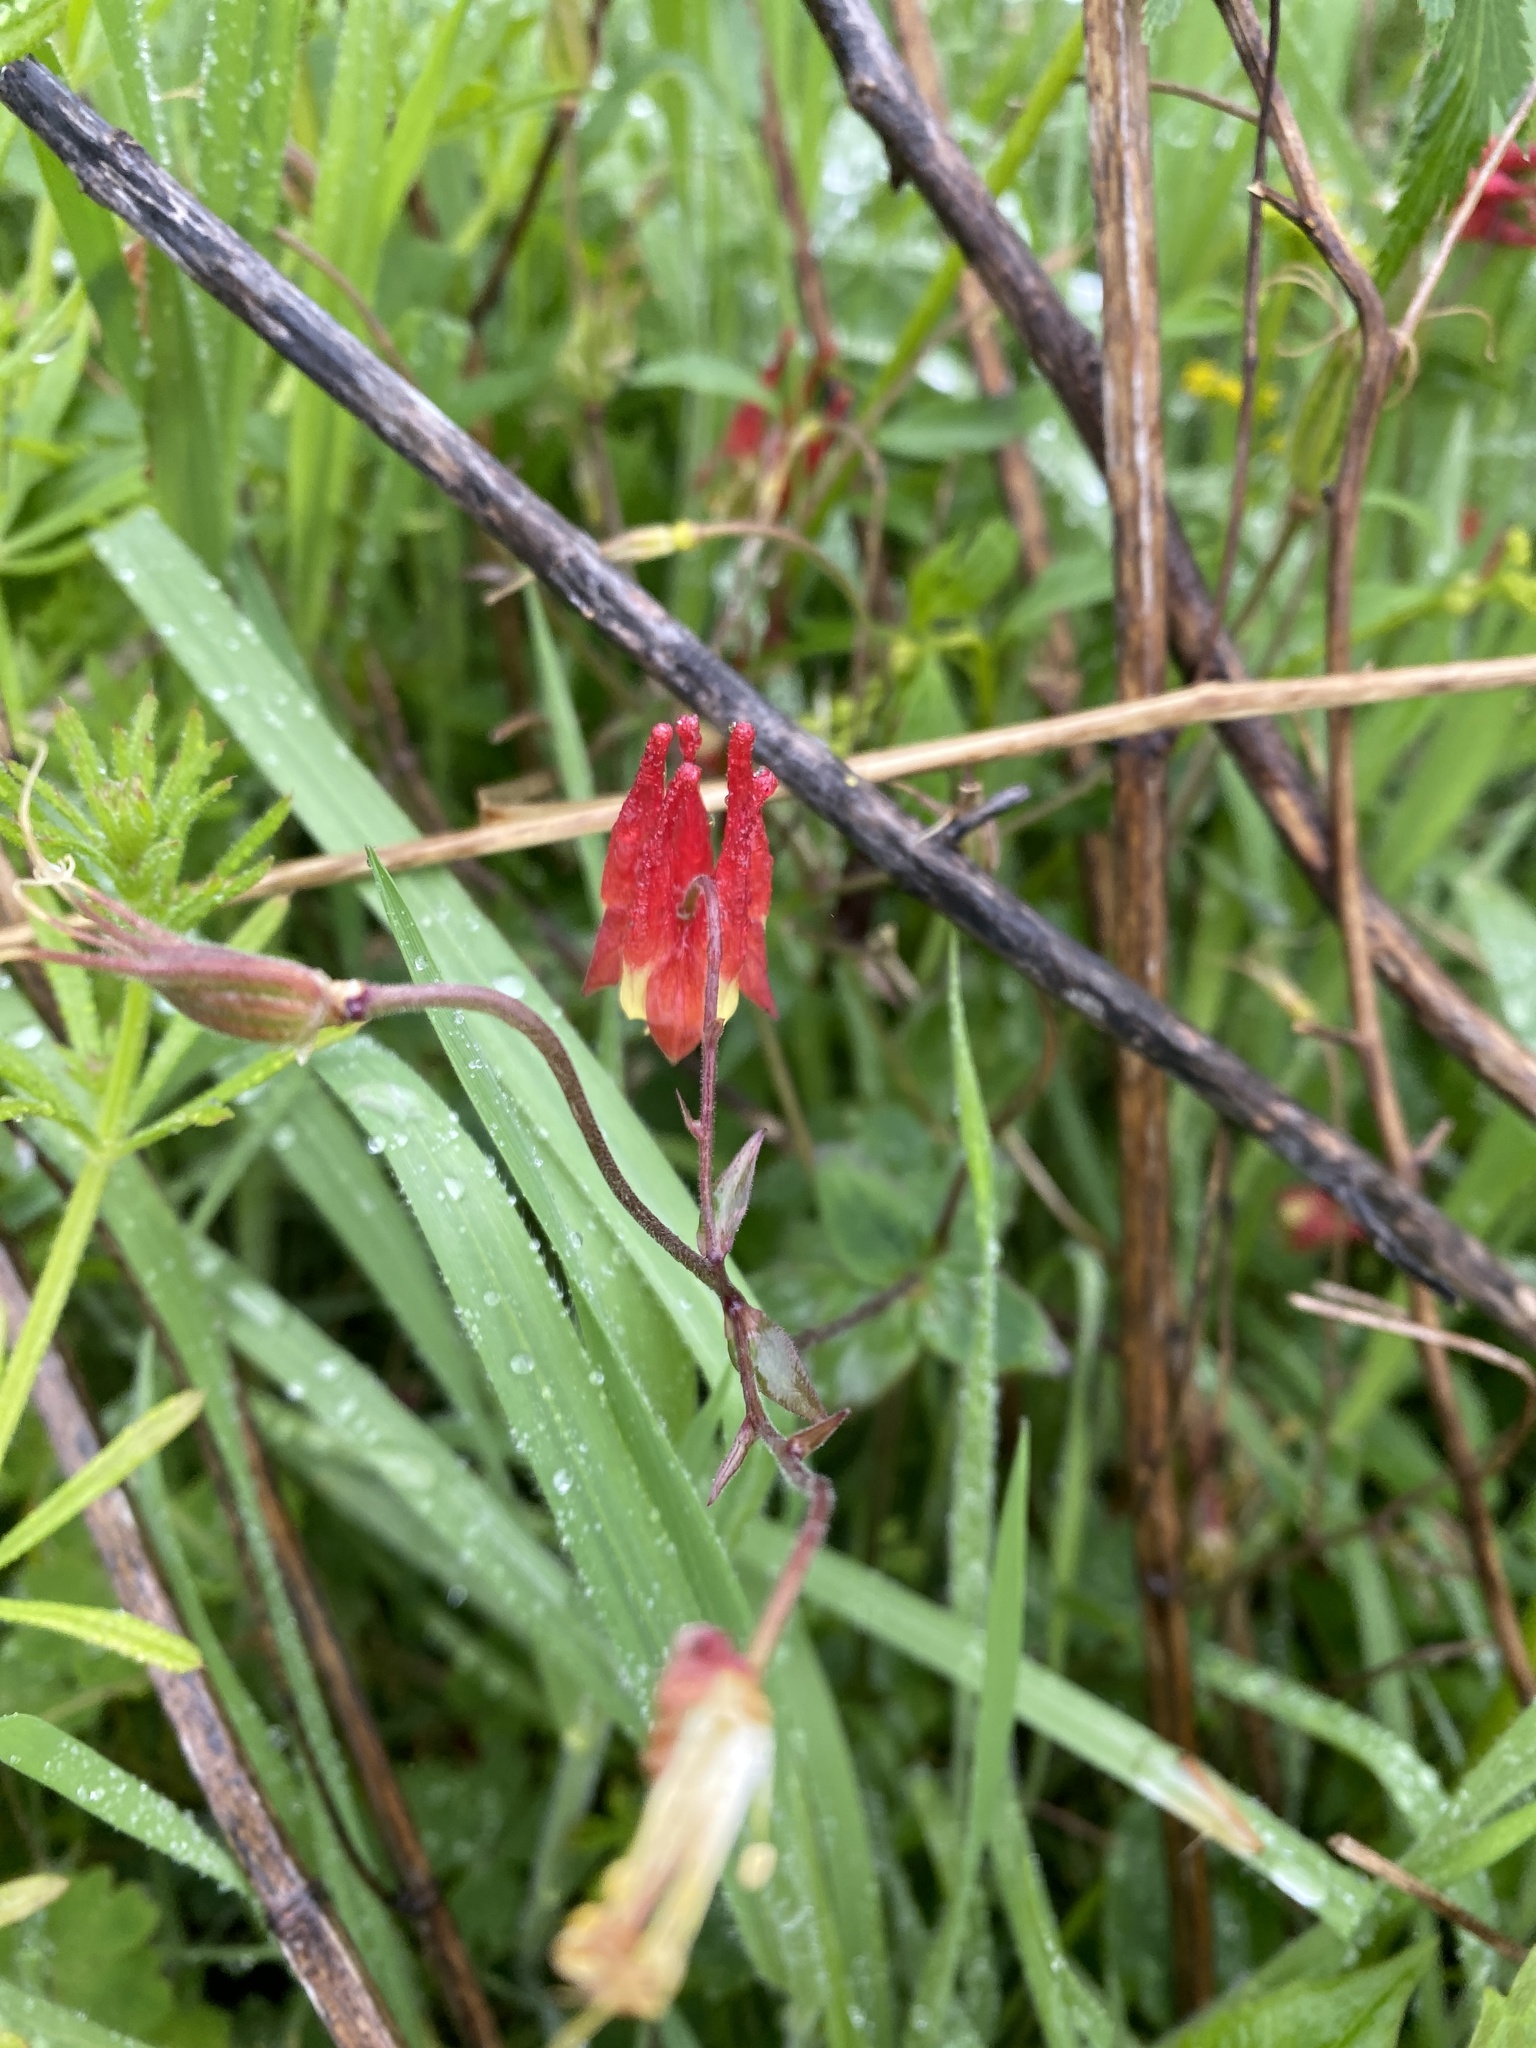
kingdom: Plantae
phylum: Tracheophyta
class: Magnoliopsida
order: Ranunculales
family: Ranunculaceae
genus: Aquilegia
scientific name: Aquilegia canadensis
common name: American columbine
